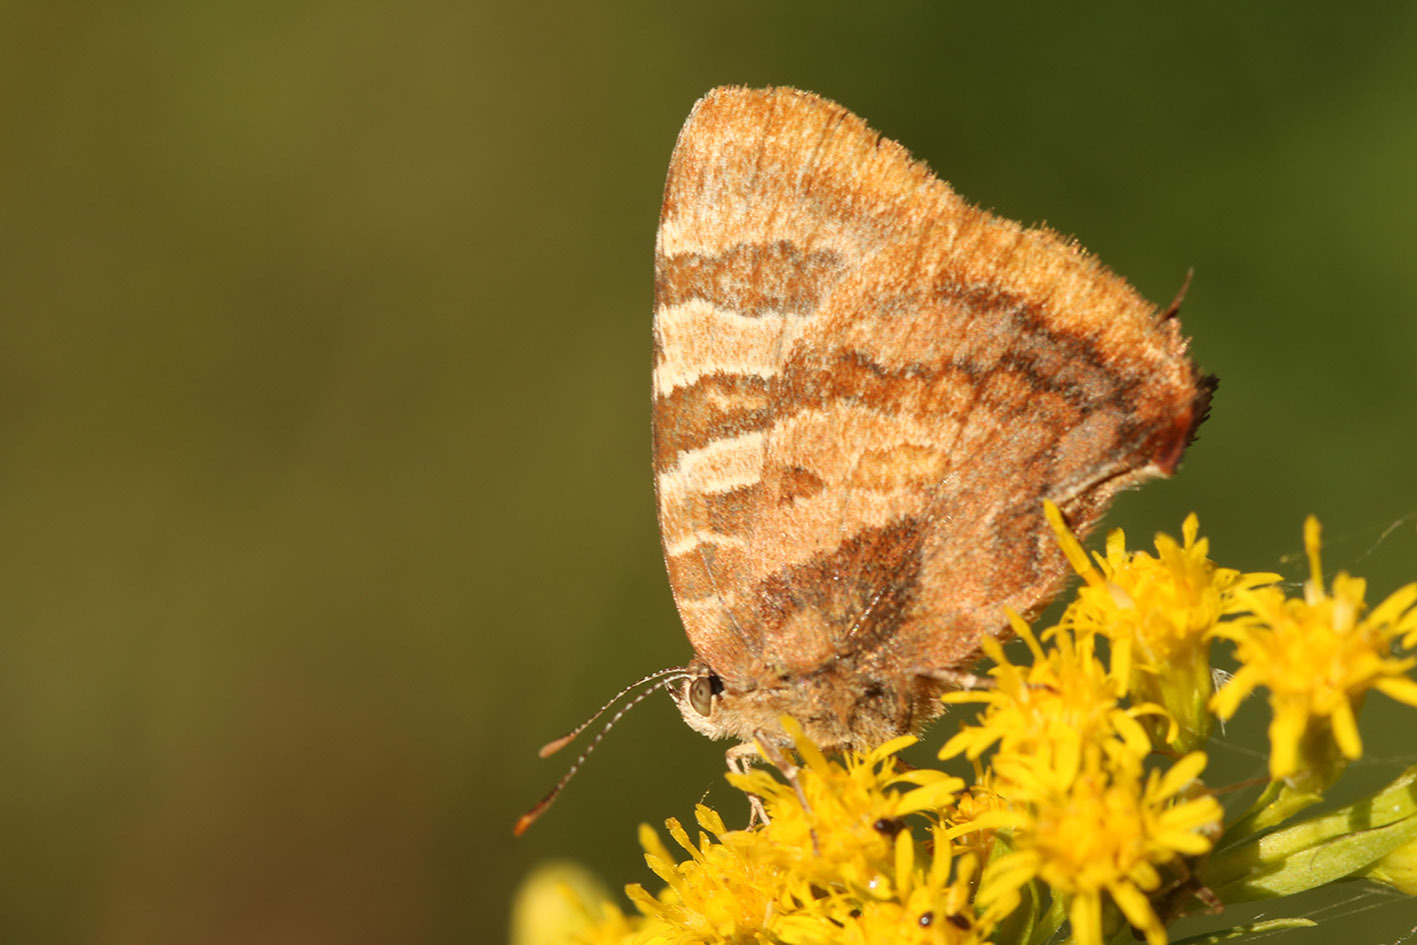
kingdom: Animalia
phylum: Arthropoda
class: Insecta
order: Lepidoptera
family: Lycaenidae
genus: Arawacus
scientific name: Arawacus ellida
